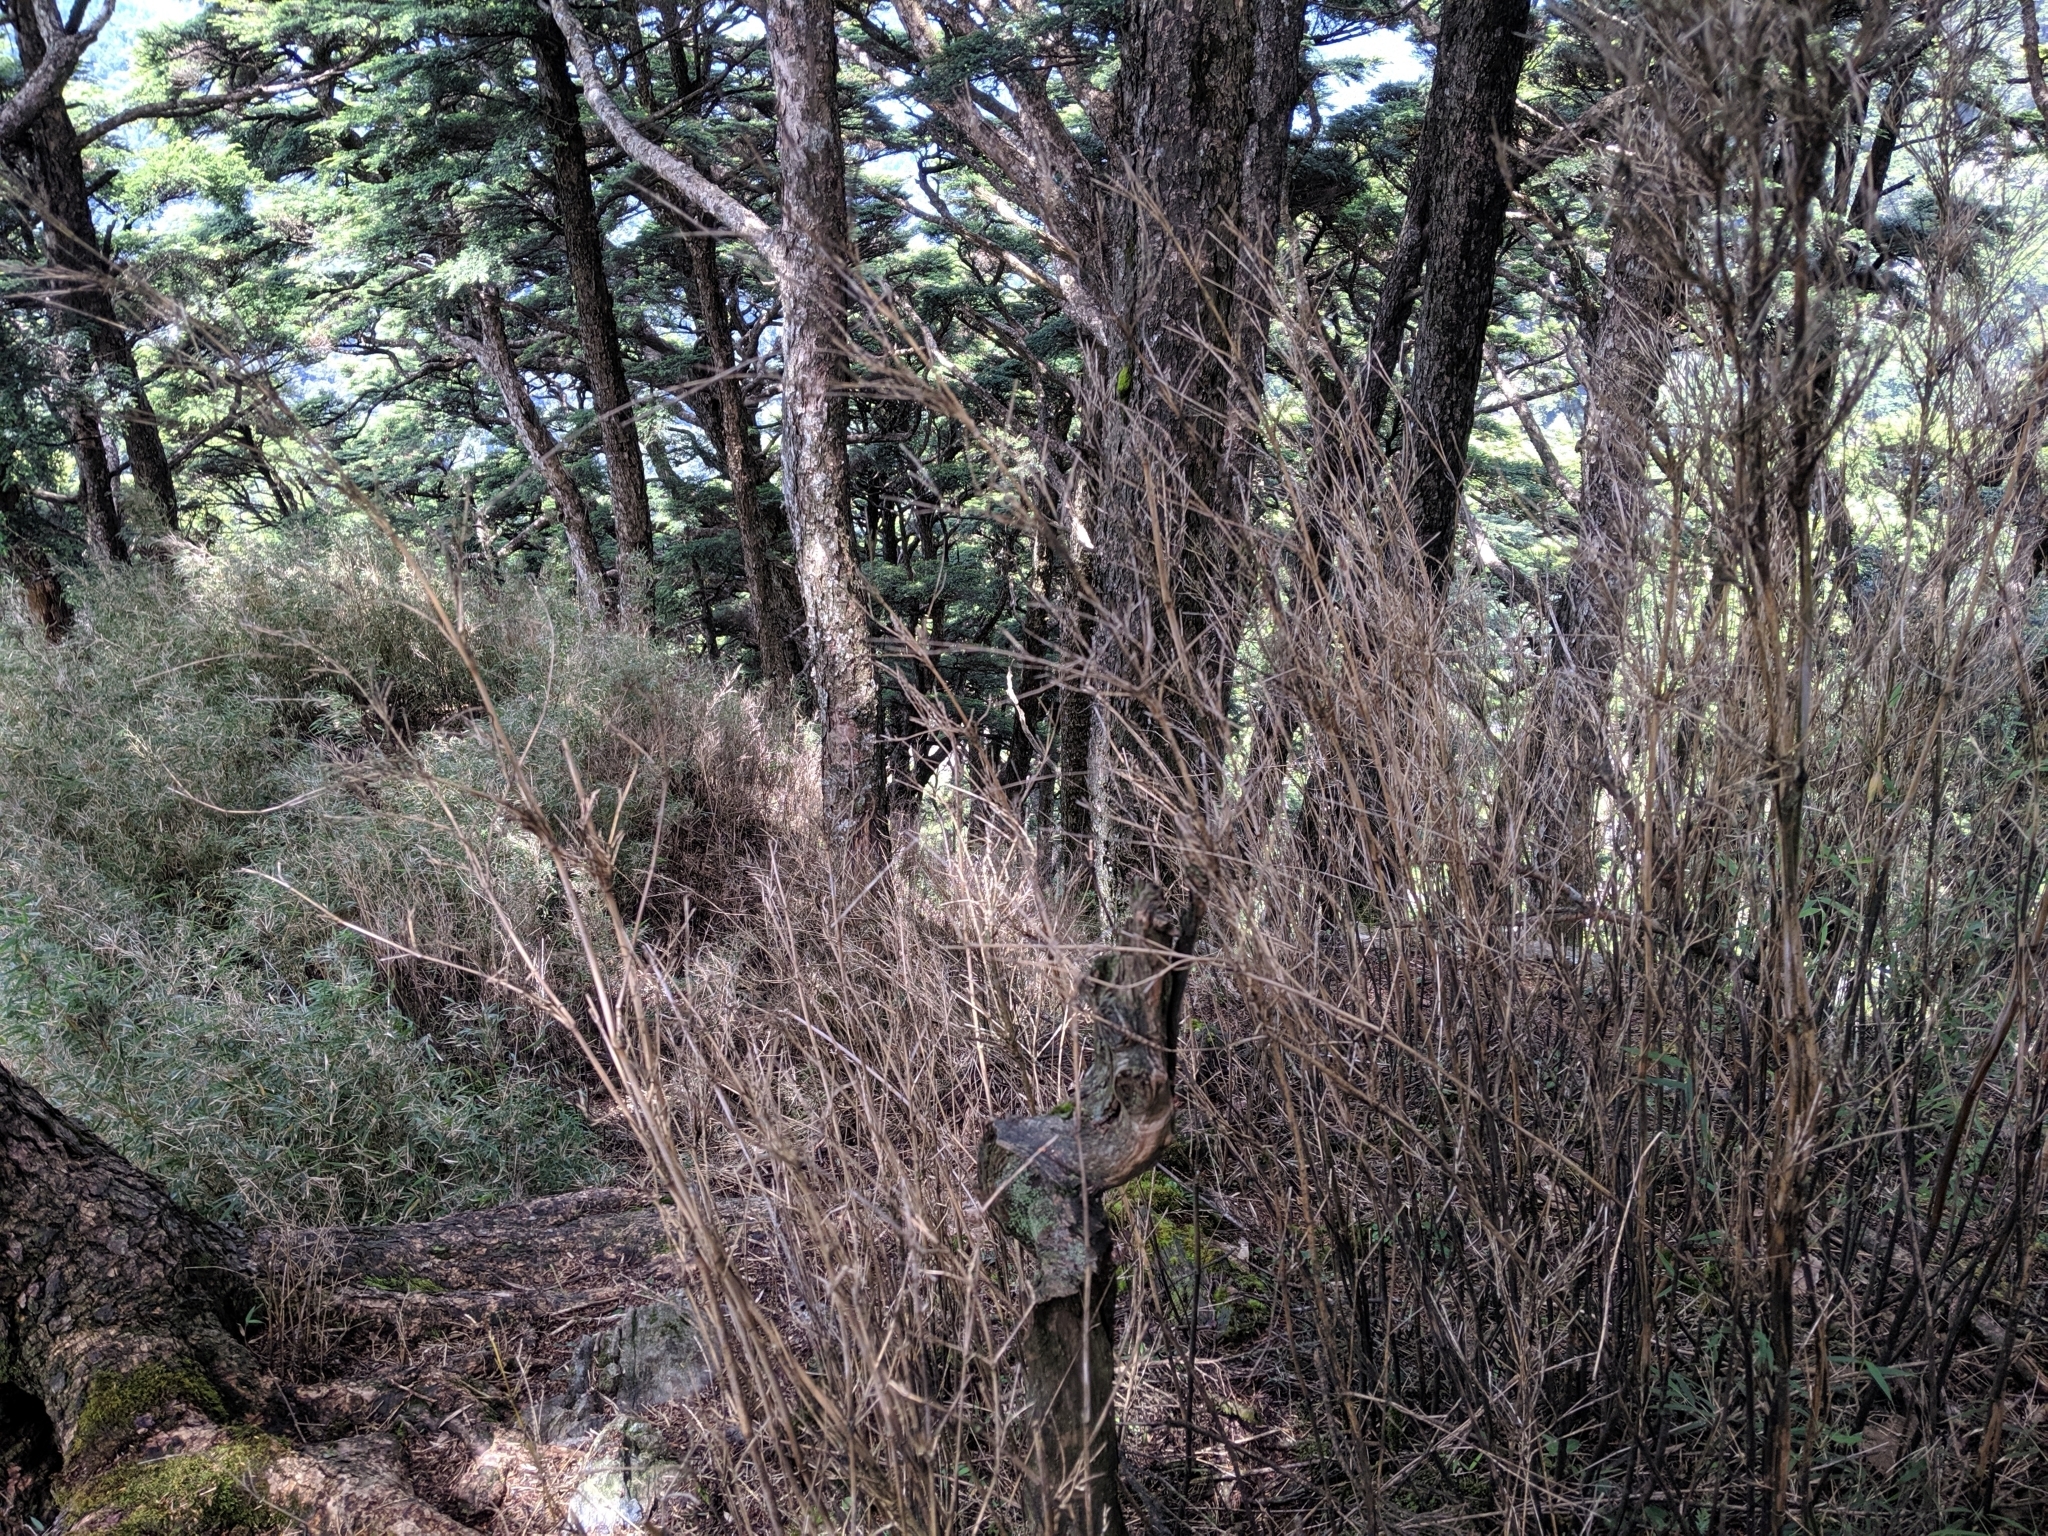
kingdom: Plantae
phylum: Tracheophyta
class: Liliopsida
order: Poales
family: Poaceae
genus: Yushania
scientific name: Yushania niitakayamensis
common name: Yushan cane
